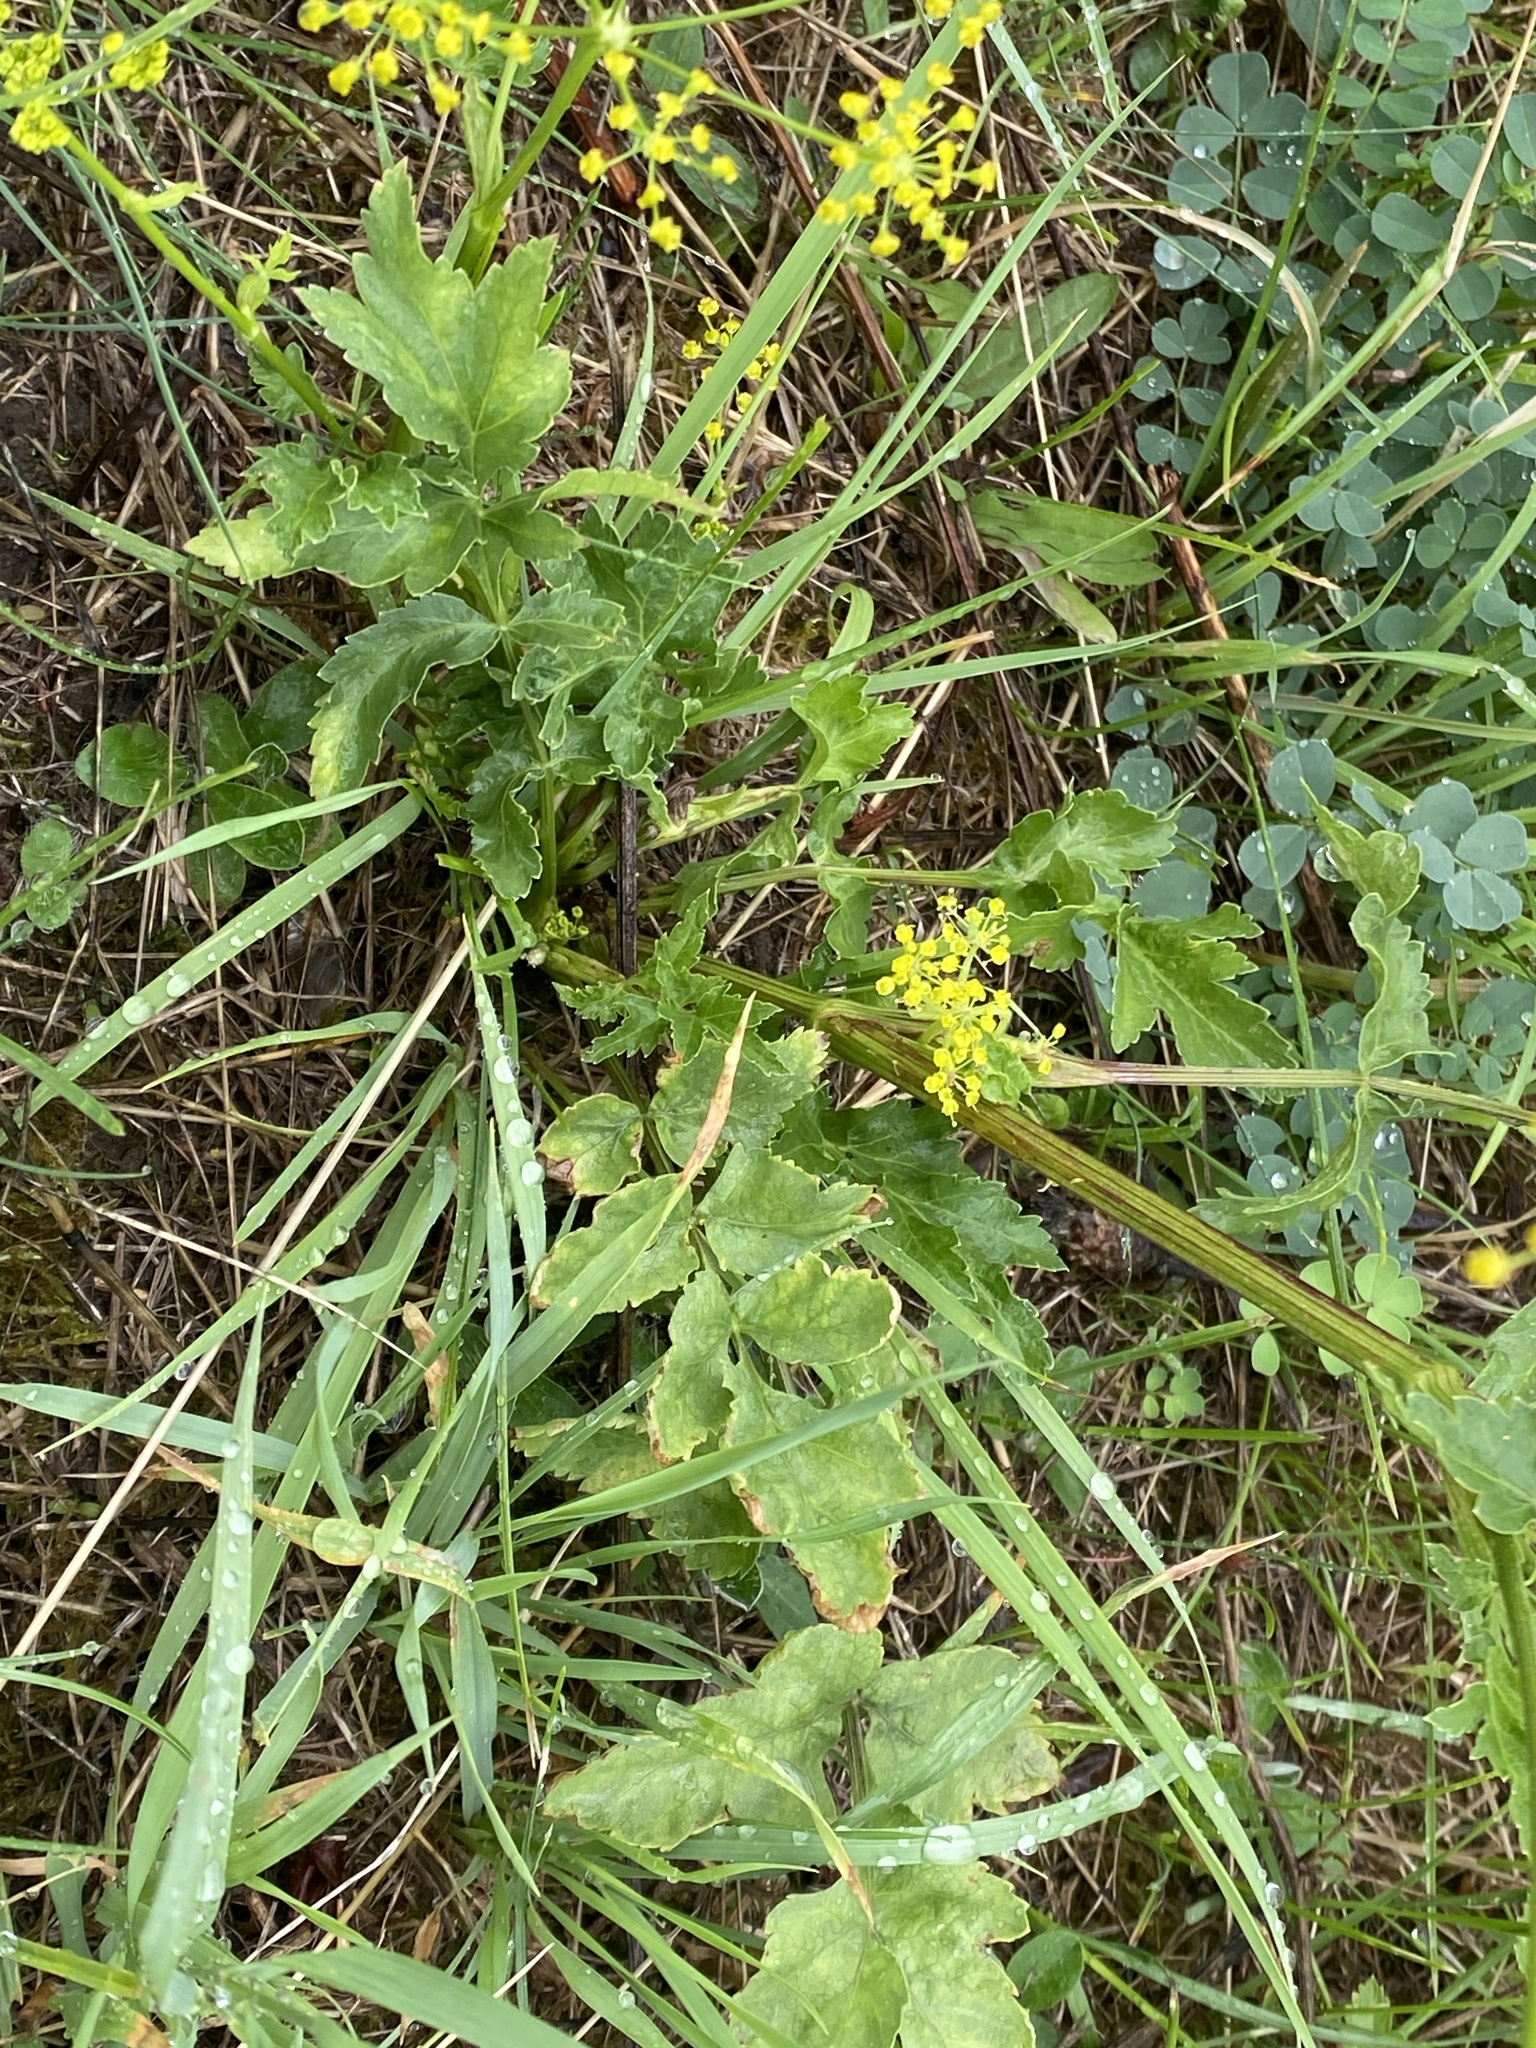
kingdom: Plantae
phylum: Tracheophyta
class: Magnoliopsida
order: Apiales
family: Apiaceae
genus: Pastinaca
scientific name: Pastinaca sativa
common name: Wild parsnip
